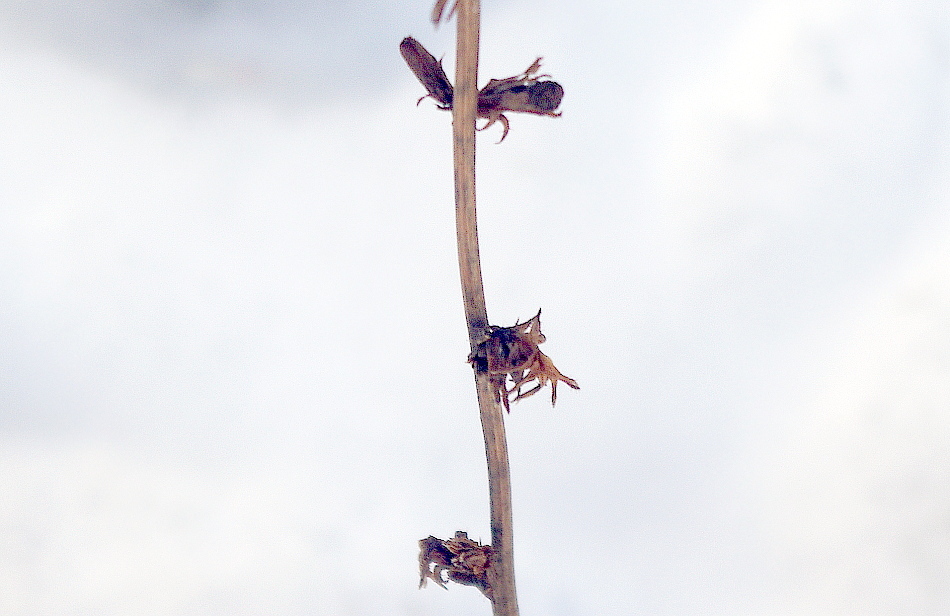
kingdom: Plantae
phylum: Tracheophyta
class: Magnoliopsida
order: Asterales
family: Asteraceae
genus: Cichorium
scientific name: Cichorium intybus
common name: Chicory
